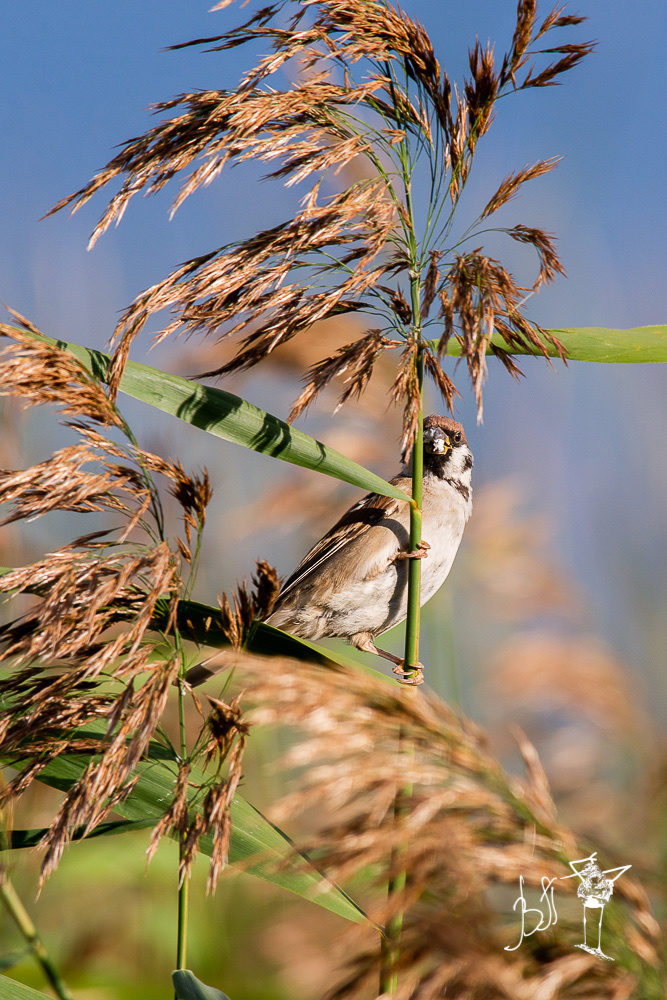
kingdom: Animalia
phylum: Chordata
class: Aves
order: Passeriformes
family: Passeridae
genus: Passer
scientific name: Passer montanus
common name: Eurasian tree sparrow
